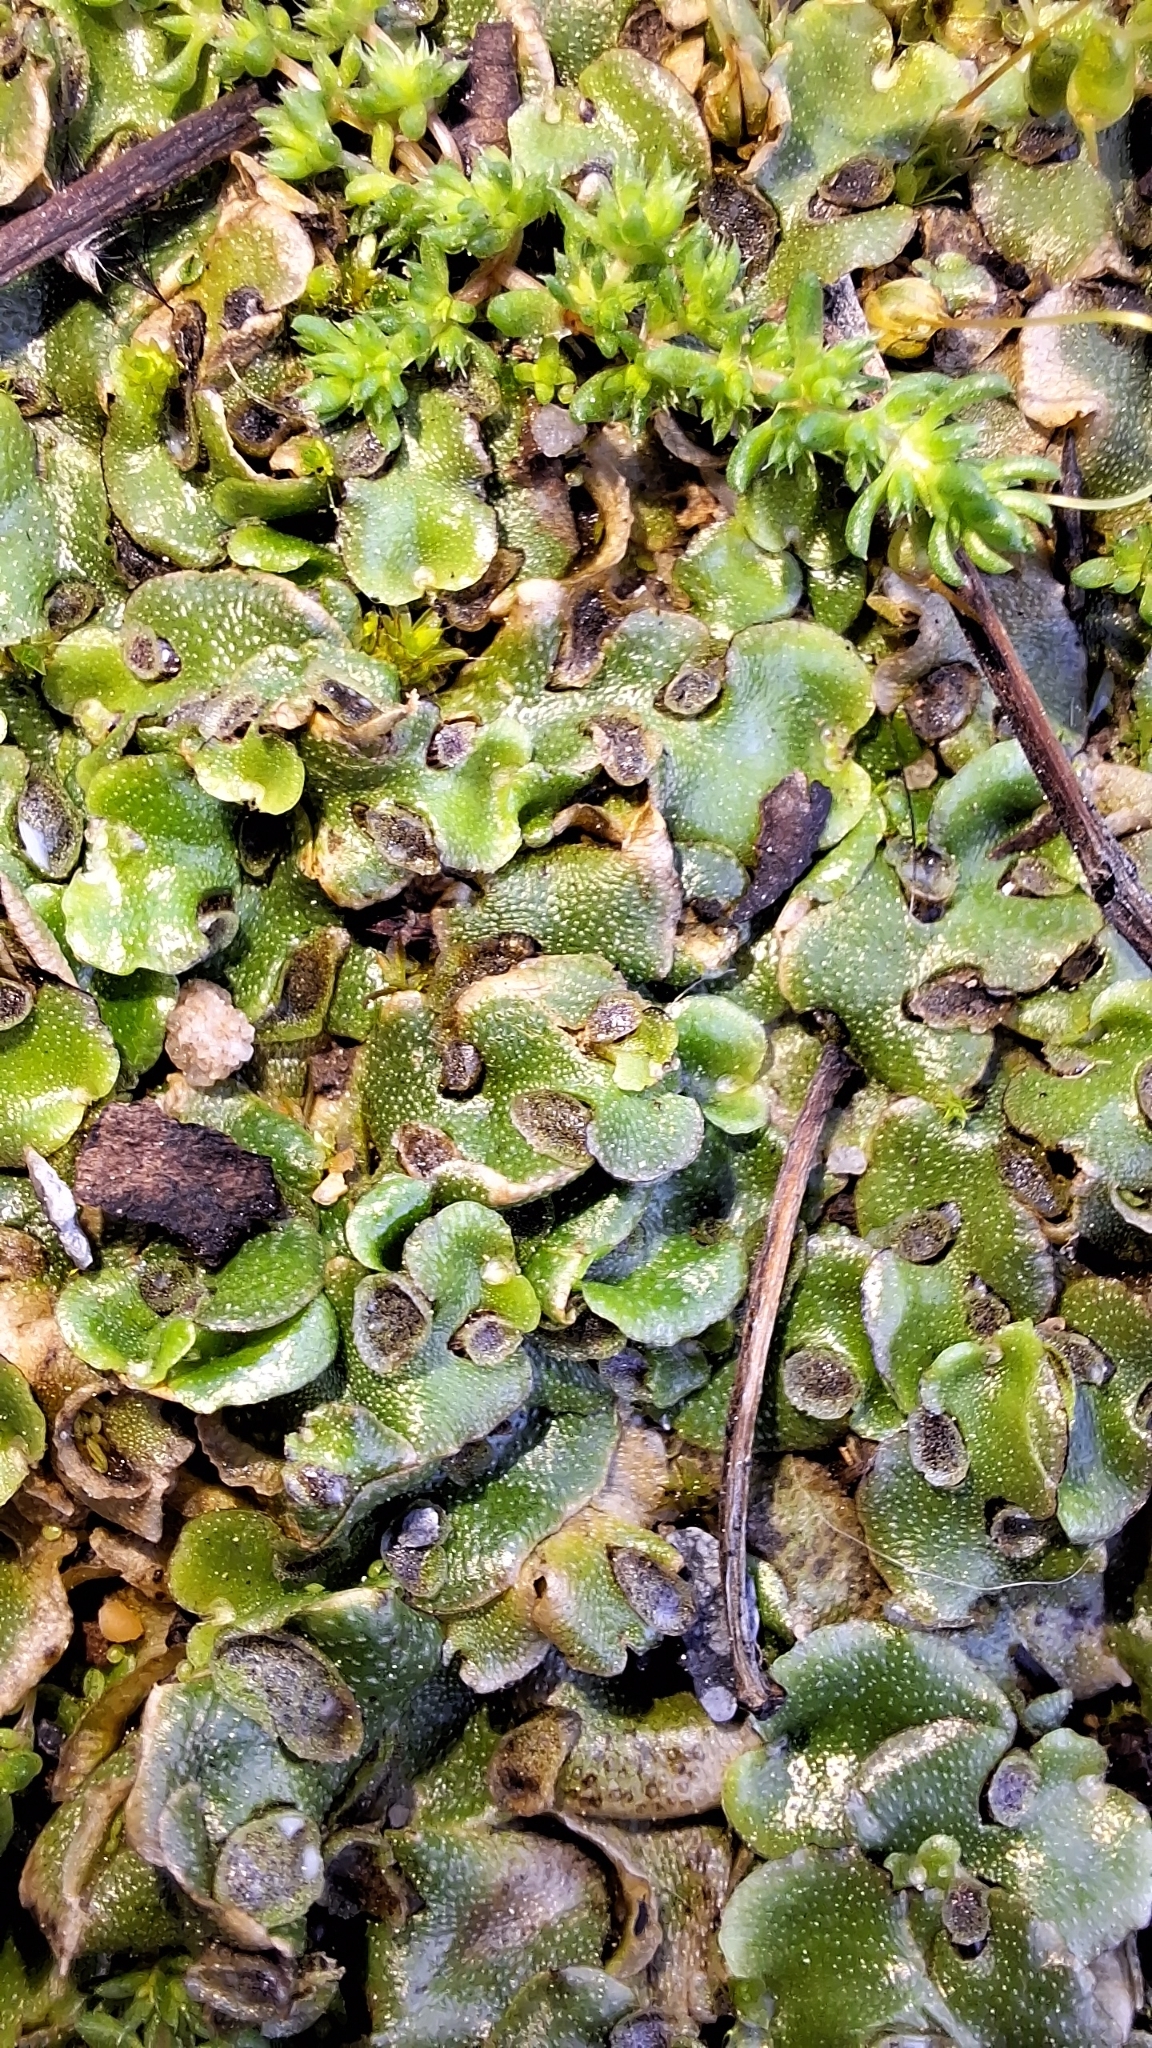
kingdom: Plantae
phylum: Marchantiophyta
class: Marchantiopsida
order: Lunulariales
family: Lunulariaceae
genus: Lunularia
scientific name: Lunularia cruciata
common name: Crescent-cup liverwort
